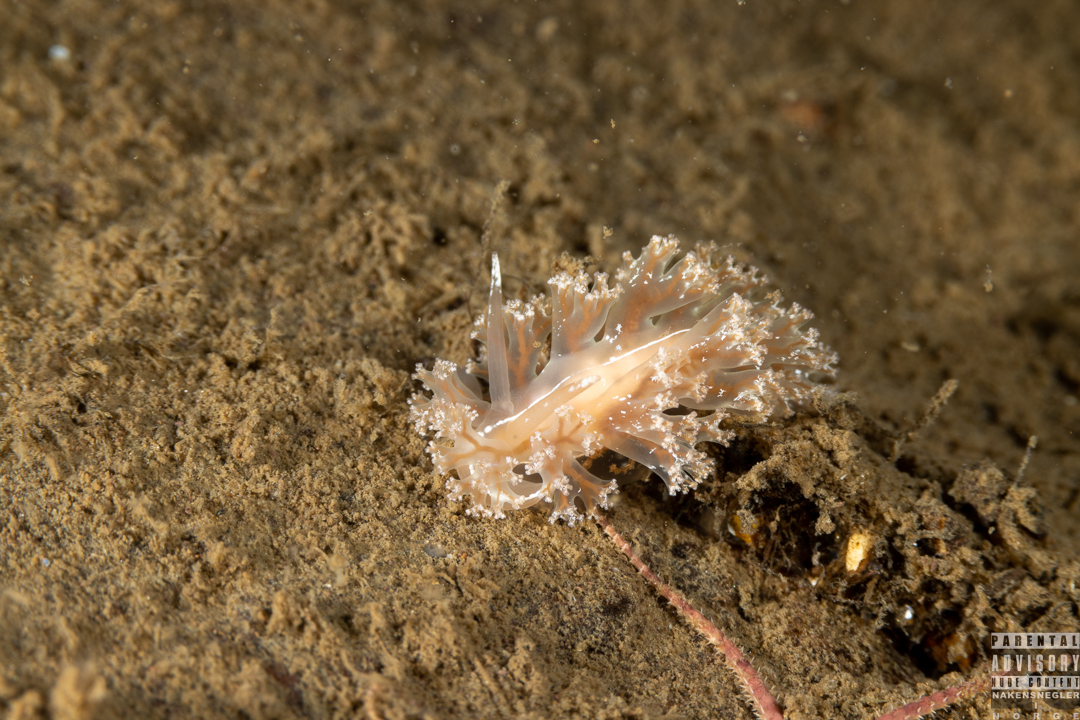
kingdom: Animalia
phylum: Mollusca
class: Gastropoda
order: Nudibranchia
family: Heroidae
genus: Hero
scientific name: Hero formosa
